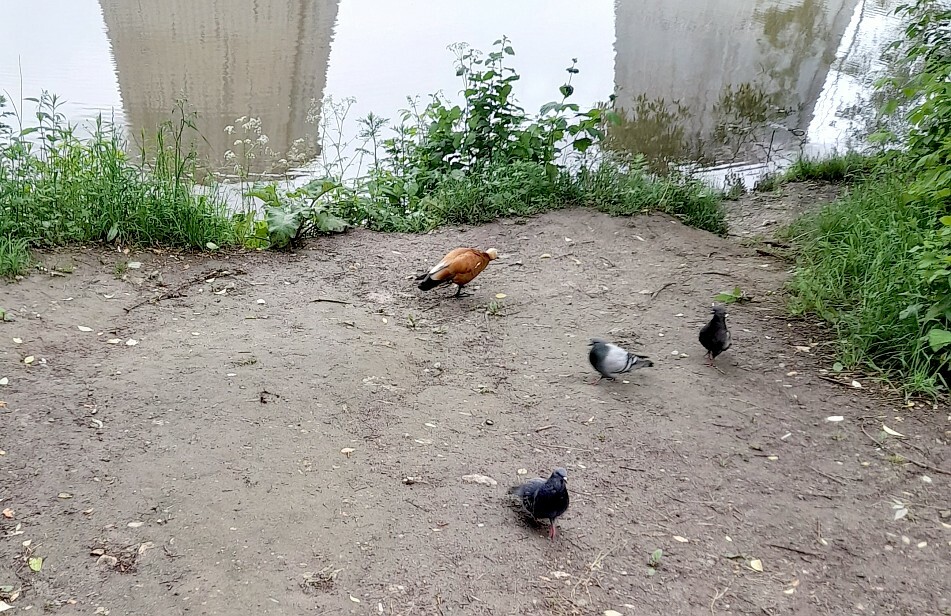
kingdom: Animalia
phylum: Chordata
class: Aves
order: Columbiformes
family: Columbidae
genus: Columba
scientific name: Columba livia
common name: Rock pigeon
